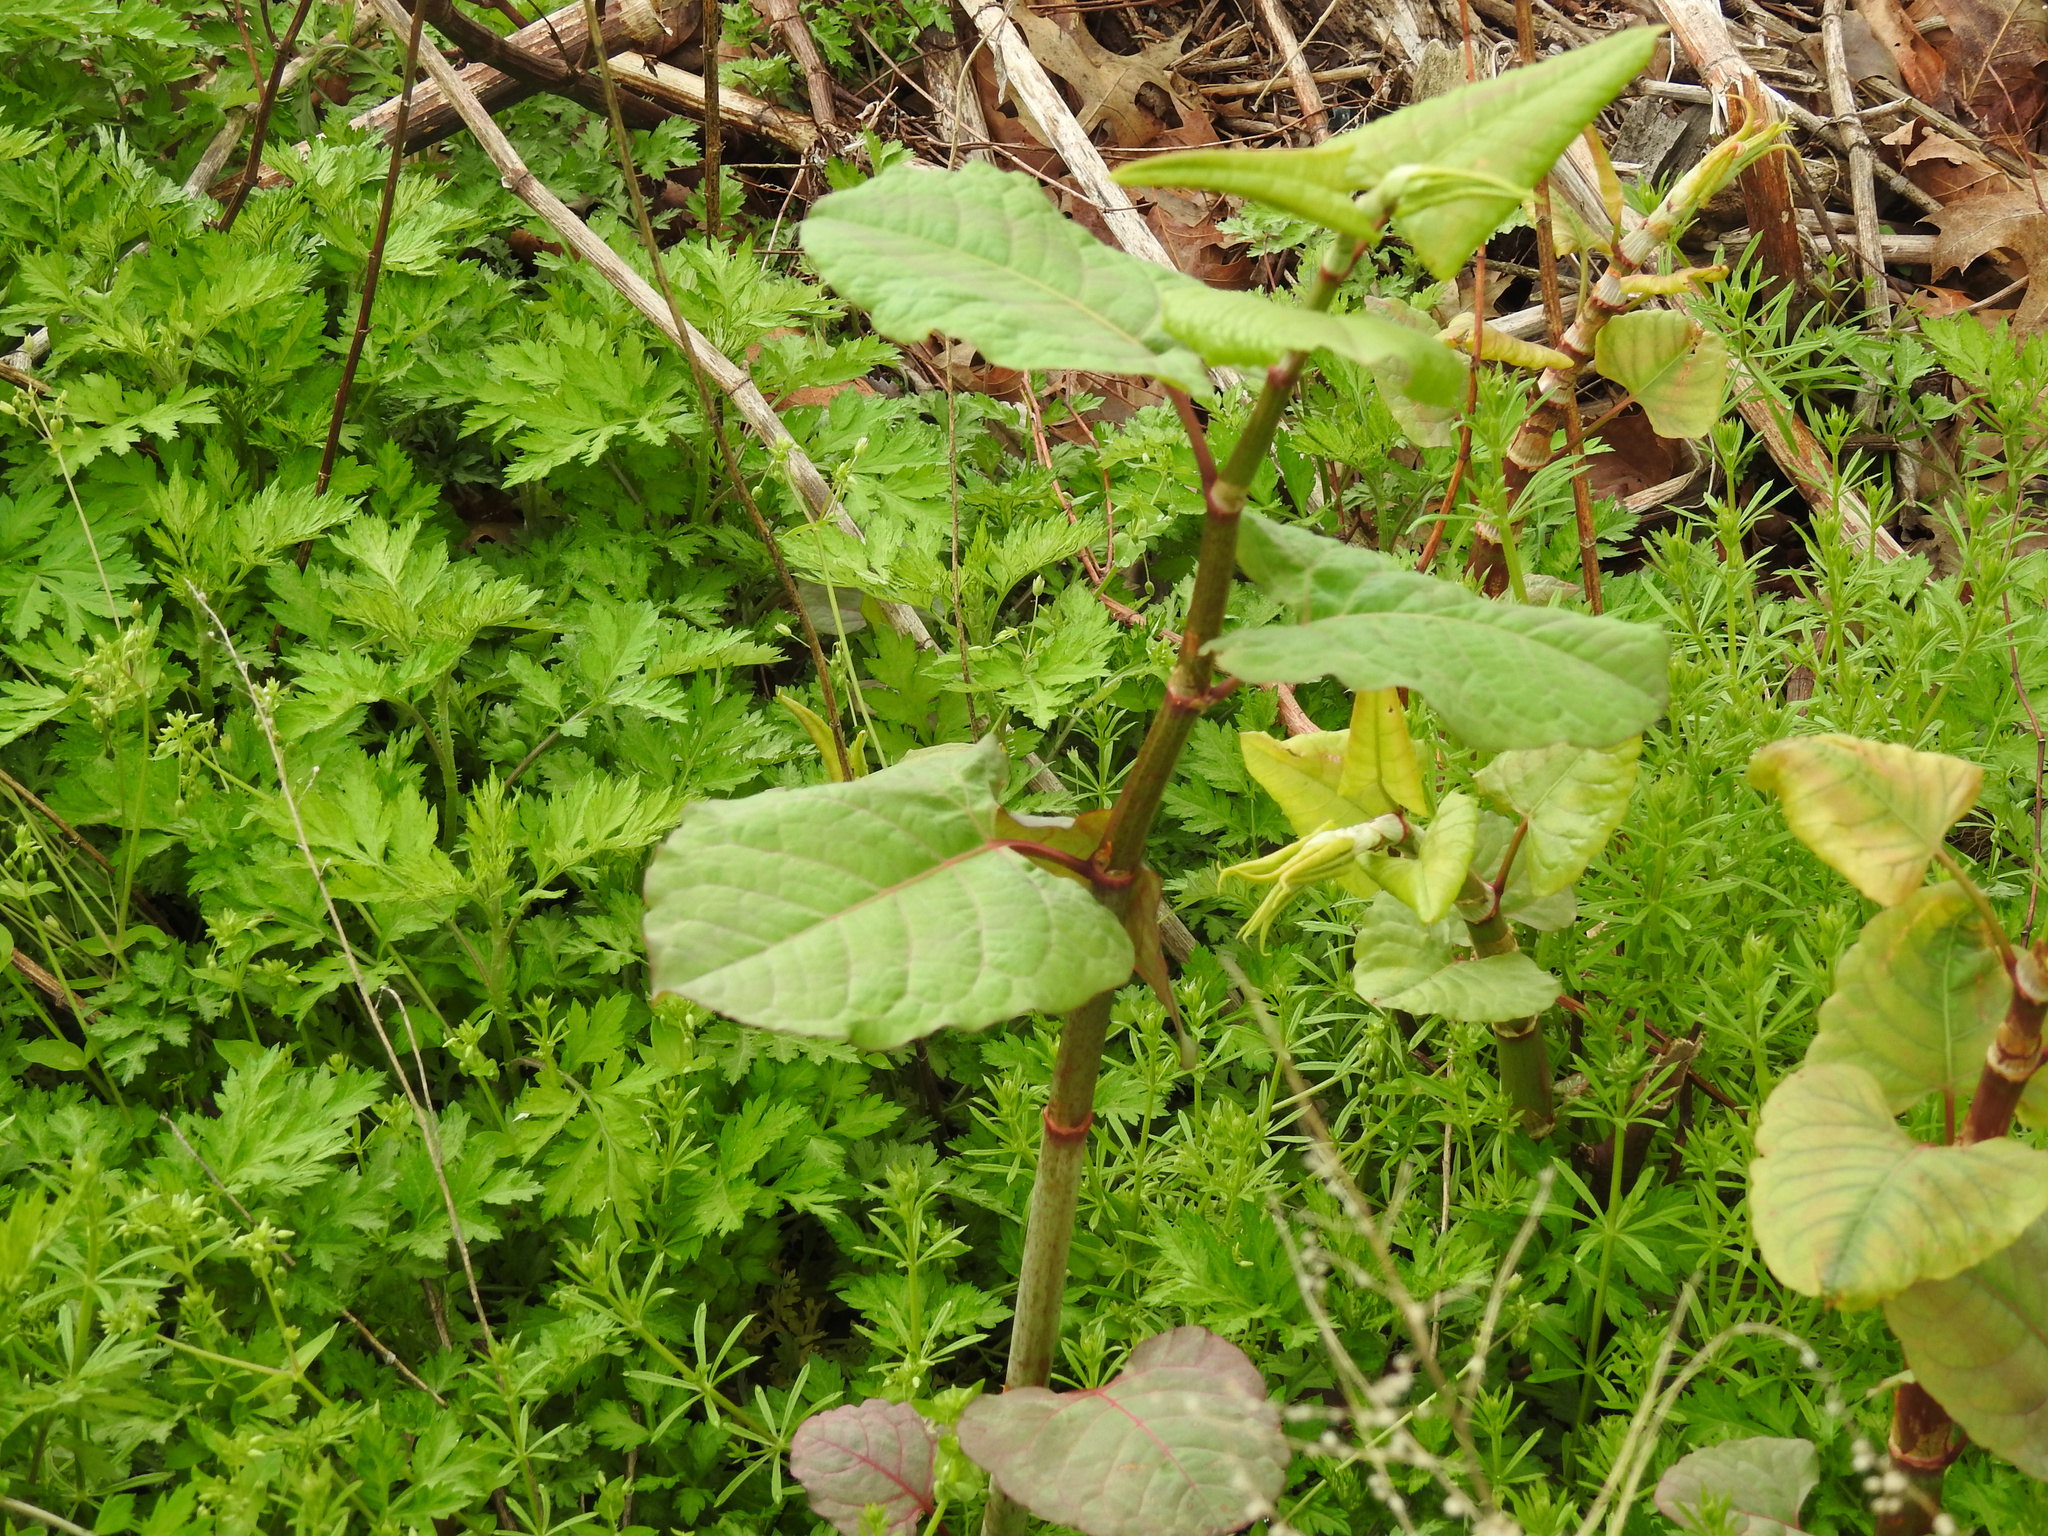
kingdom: Plantae
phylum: Tracheophyta
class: Magnoliopsida
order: Caryophyllales
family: Polygonaceae
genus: Reynoutria
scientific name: Reynoutria japonica
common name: Japanese knotweed
